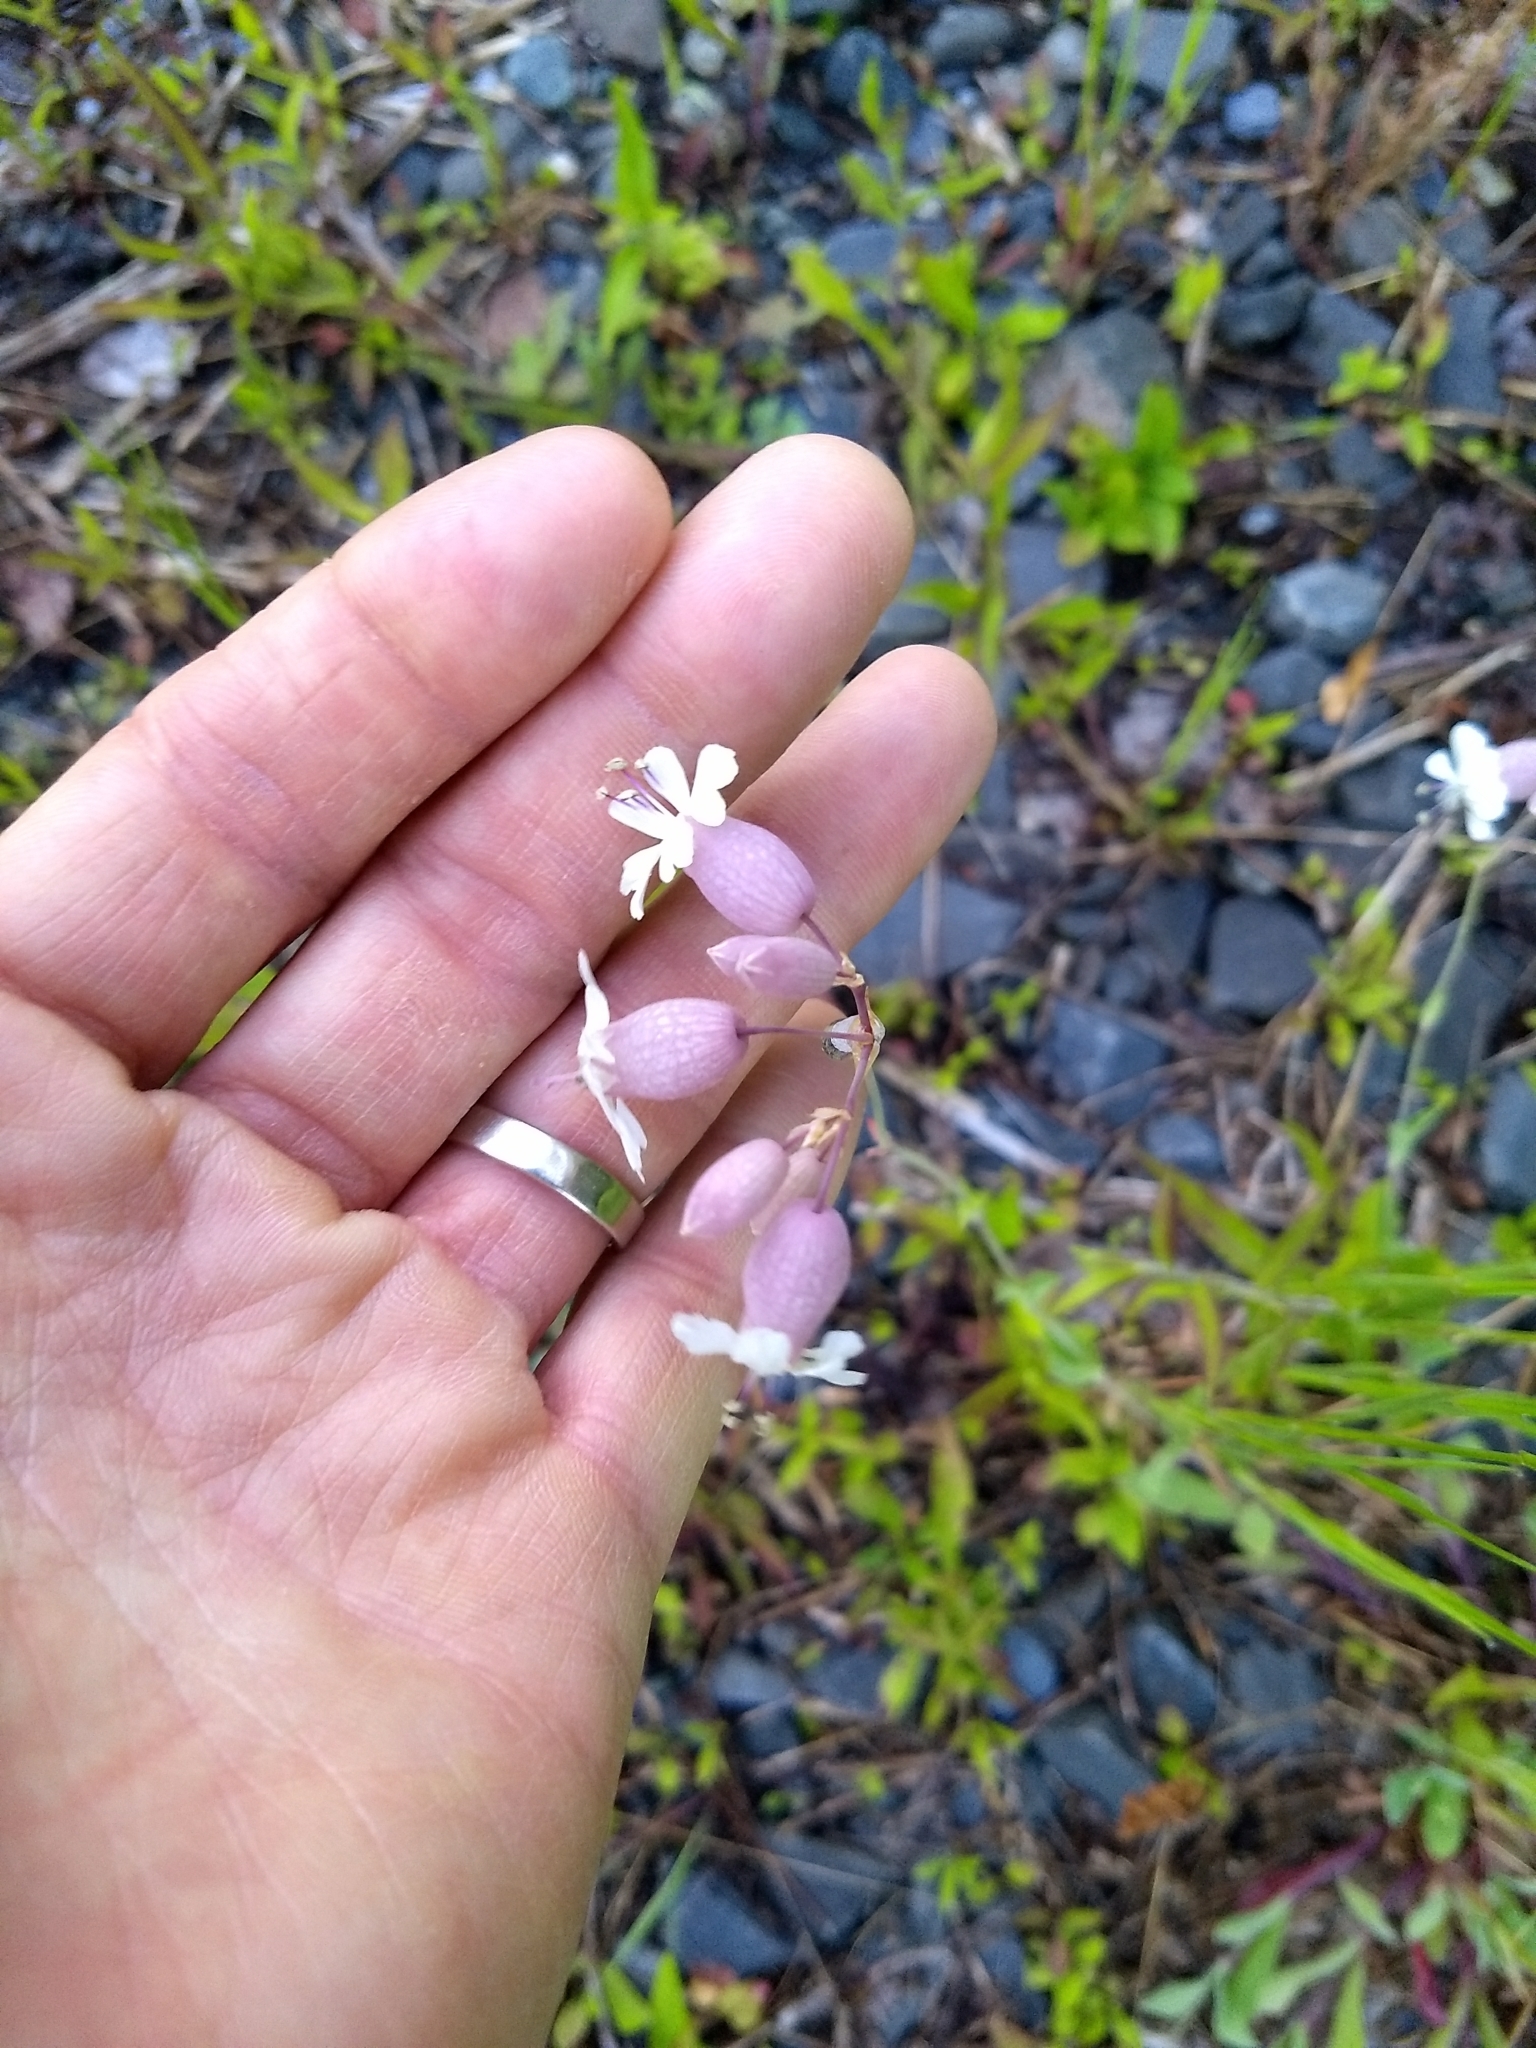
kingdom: Plantae
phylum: Tracheophyta
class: Magnoliopsida
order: Caryophyllales
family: Caryophyllaceae
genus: Silene
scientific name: Silene vulgaris
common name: Bladder campion
